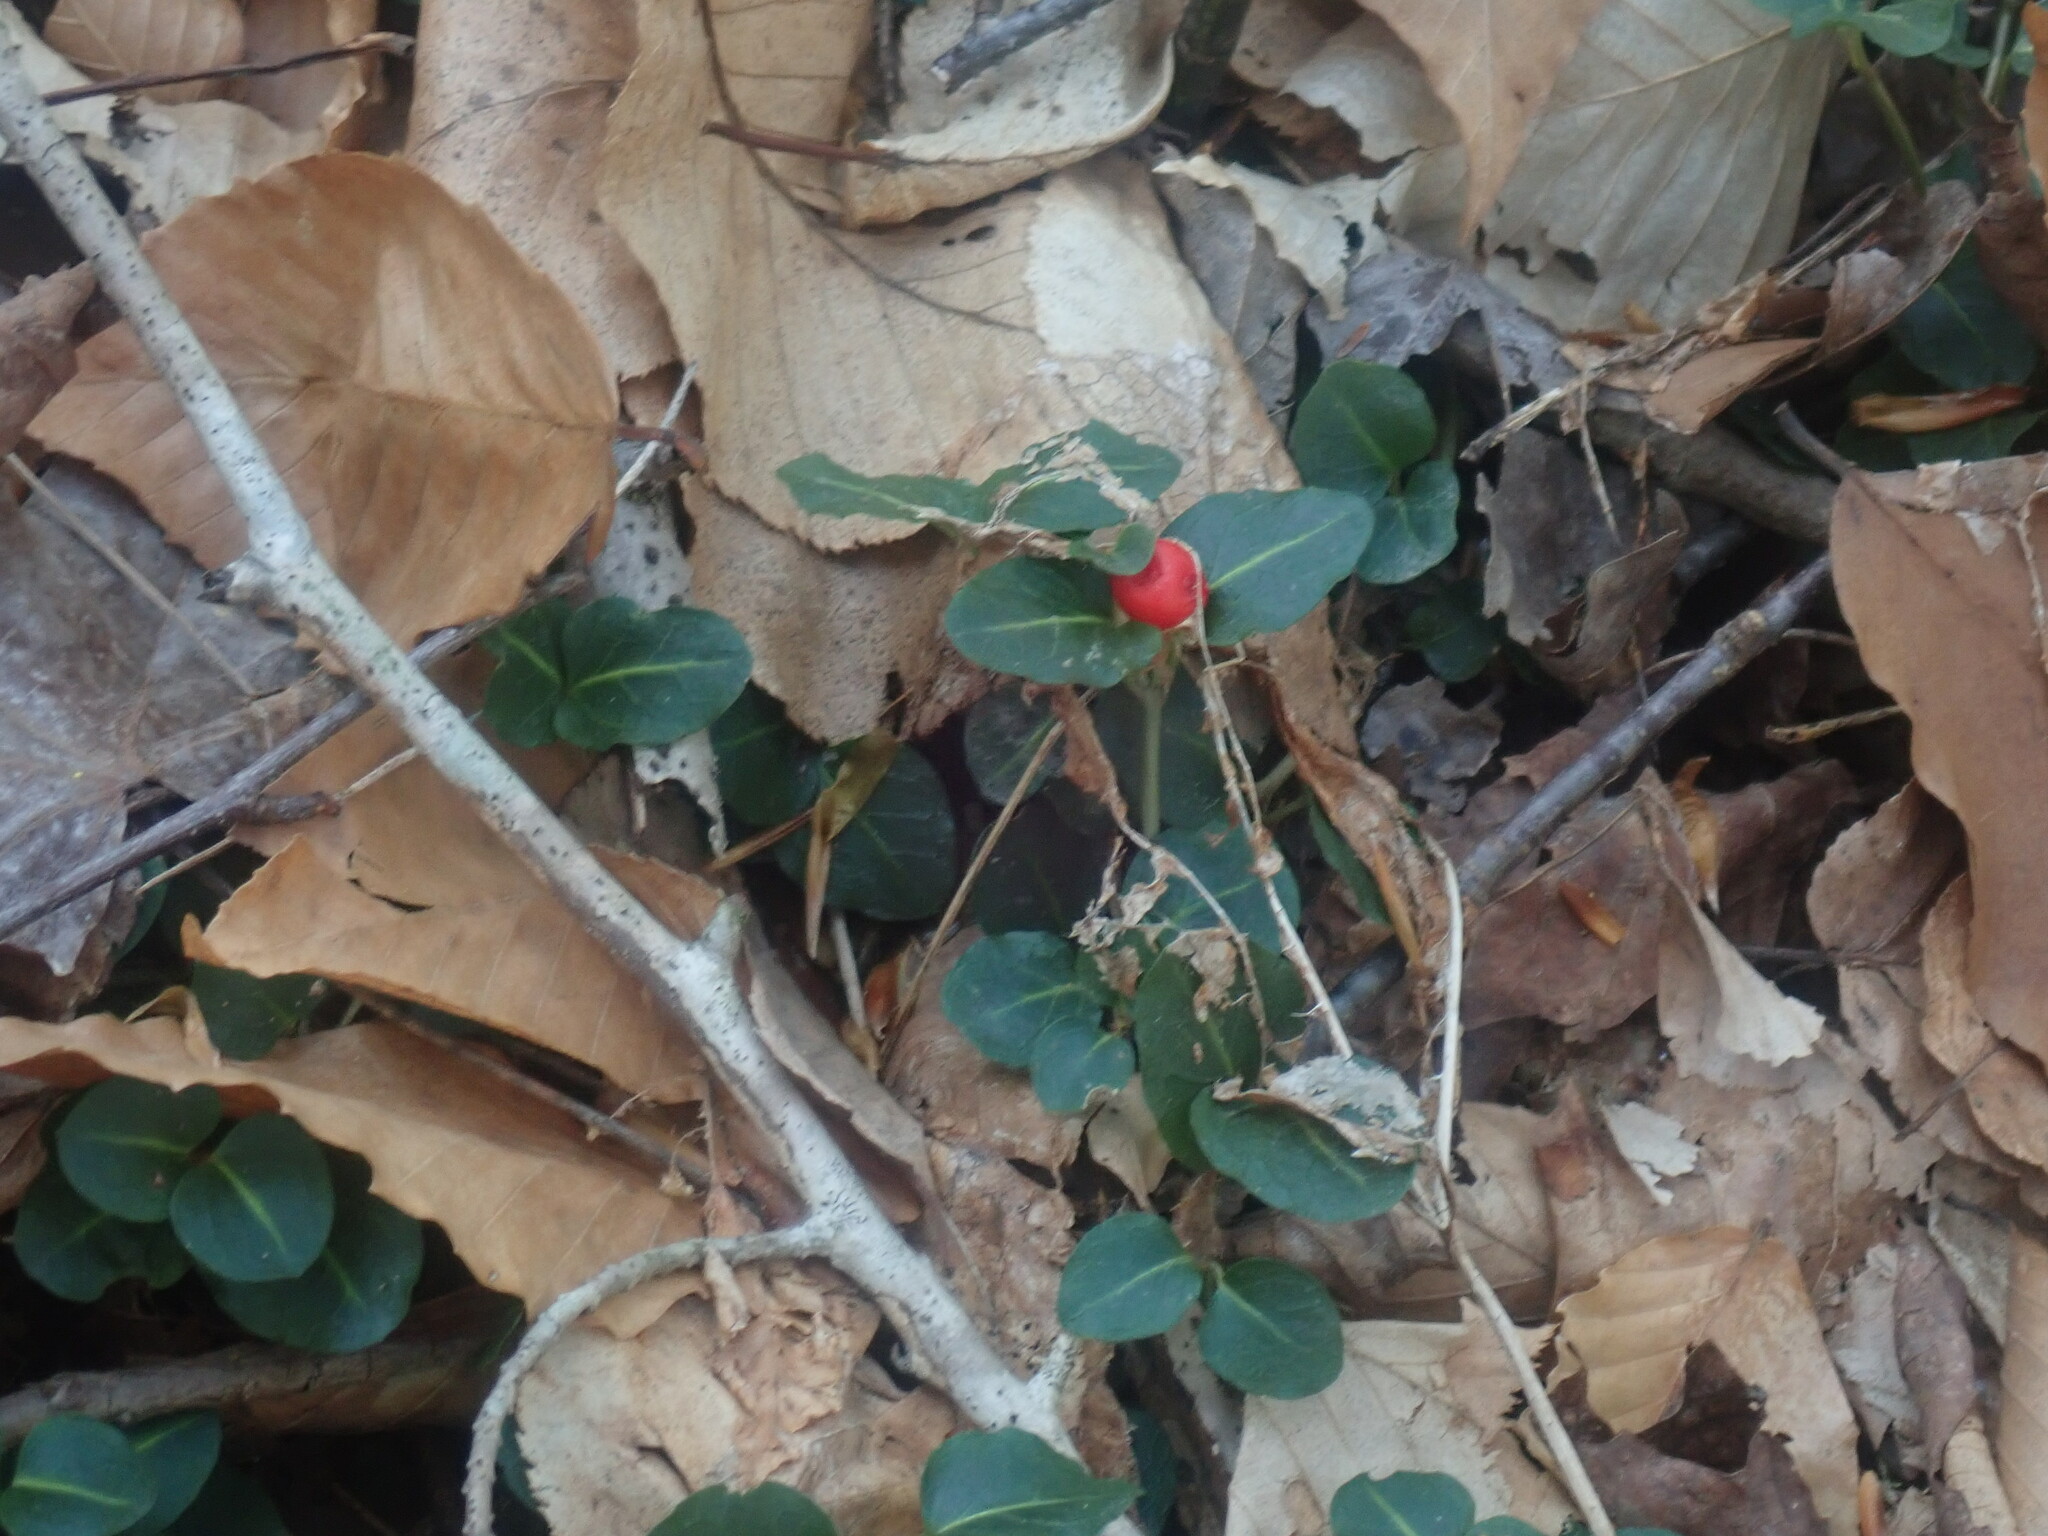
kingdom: Plantae
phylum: Tracheophyta
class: Magnoliopsida
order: Gentianales
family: Rubiaceae
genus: Mitchella
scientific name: Mitchella repens
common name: Partridge-berry
